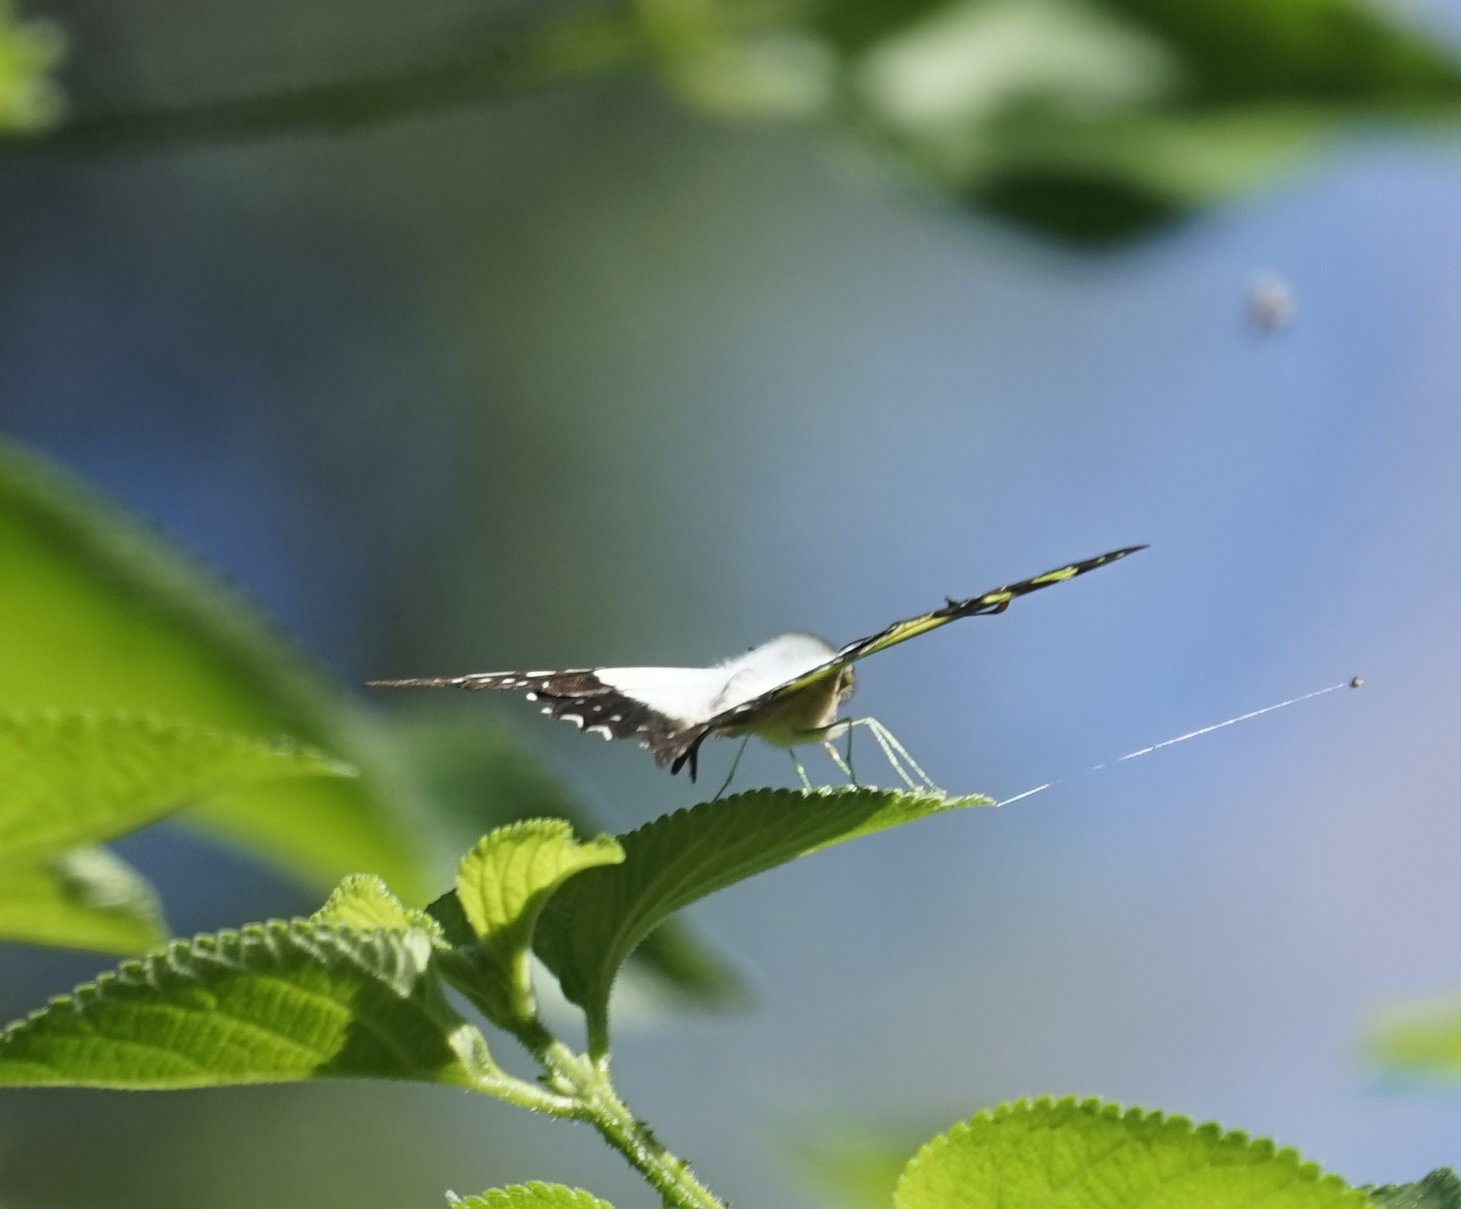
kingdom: Animalia
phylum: Arthropoda
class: Insecta
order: Lepidoptera
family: Papilionidae
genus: Graphium
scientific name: Graphium macleayanus
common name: Macleay's swallowtail
